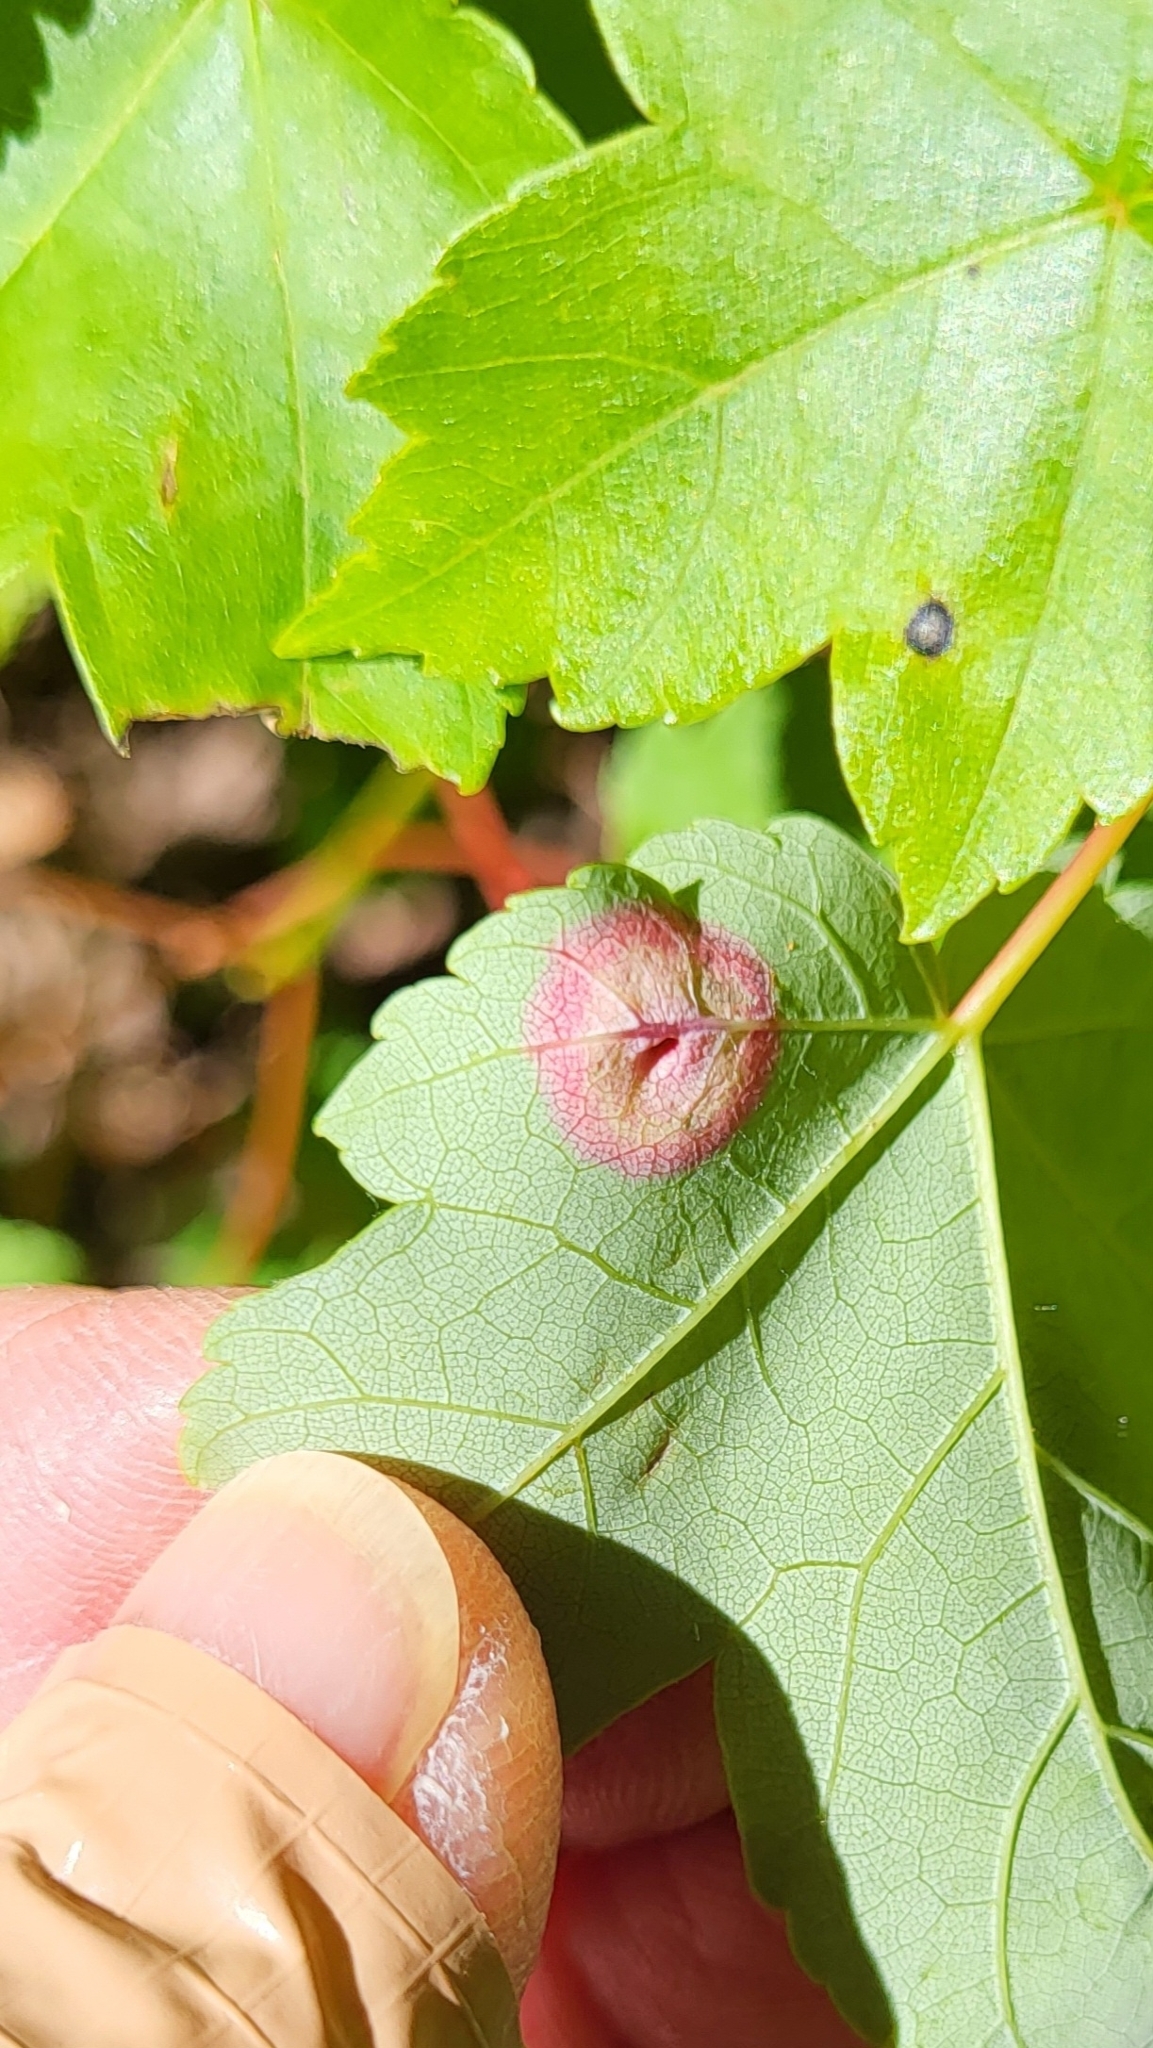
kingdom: Animalia
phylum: Arthropoda
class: Insecta
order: Diptera
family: Cecidomyiidae
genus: Acericecis
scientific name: Acericecis ocellaris
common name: Ocellate gall midge
